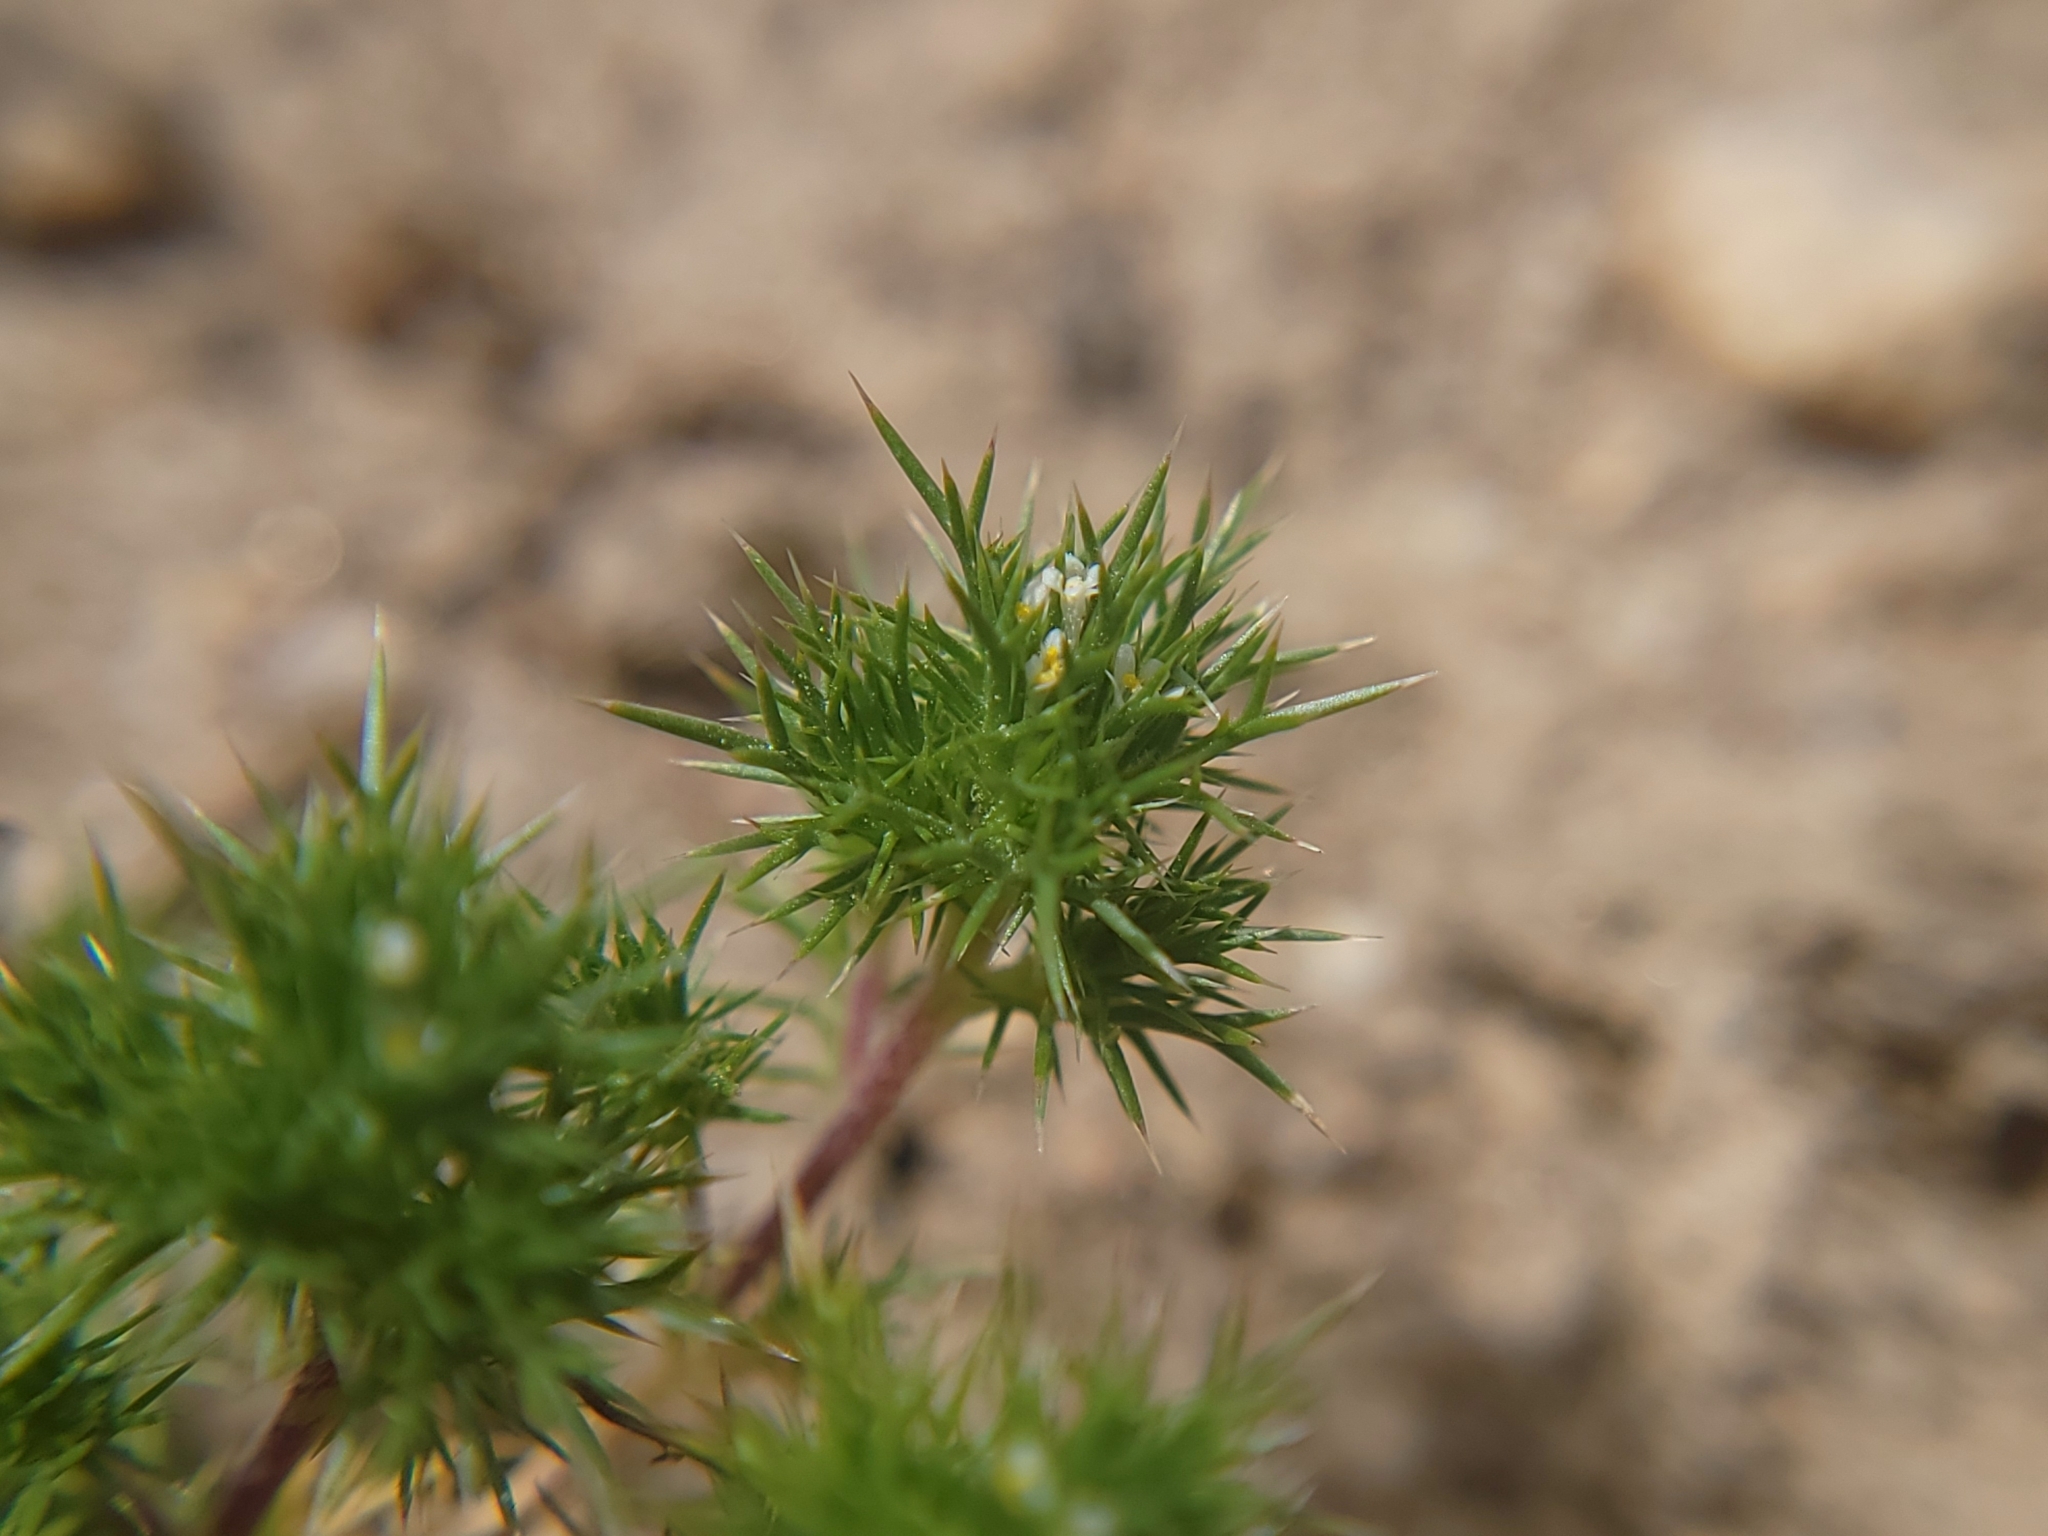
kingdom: Plantae
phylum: Tracheophyta
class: Magnoliopsida
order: Ericales
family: Polemoniaceae
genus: Navarretia
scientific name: Navarretia intertexta
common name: Needle-leaved navarretia
